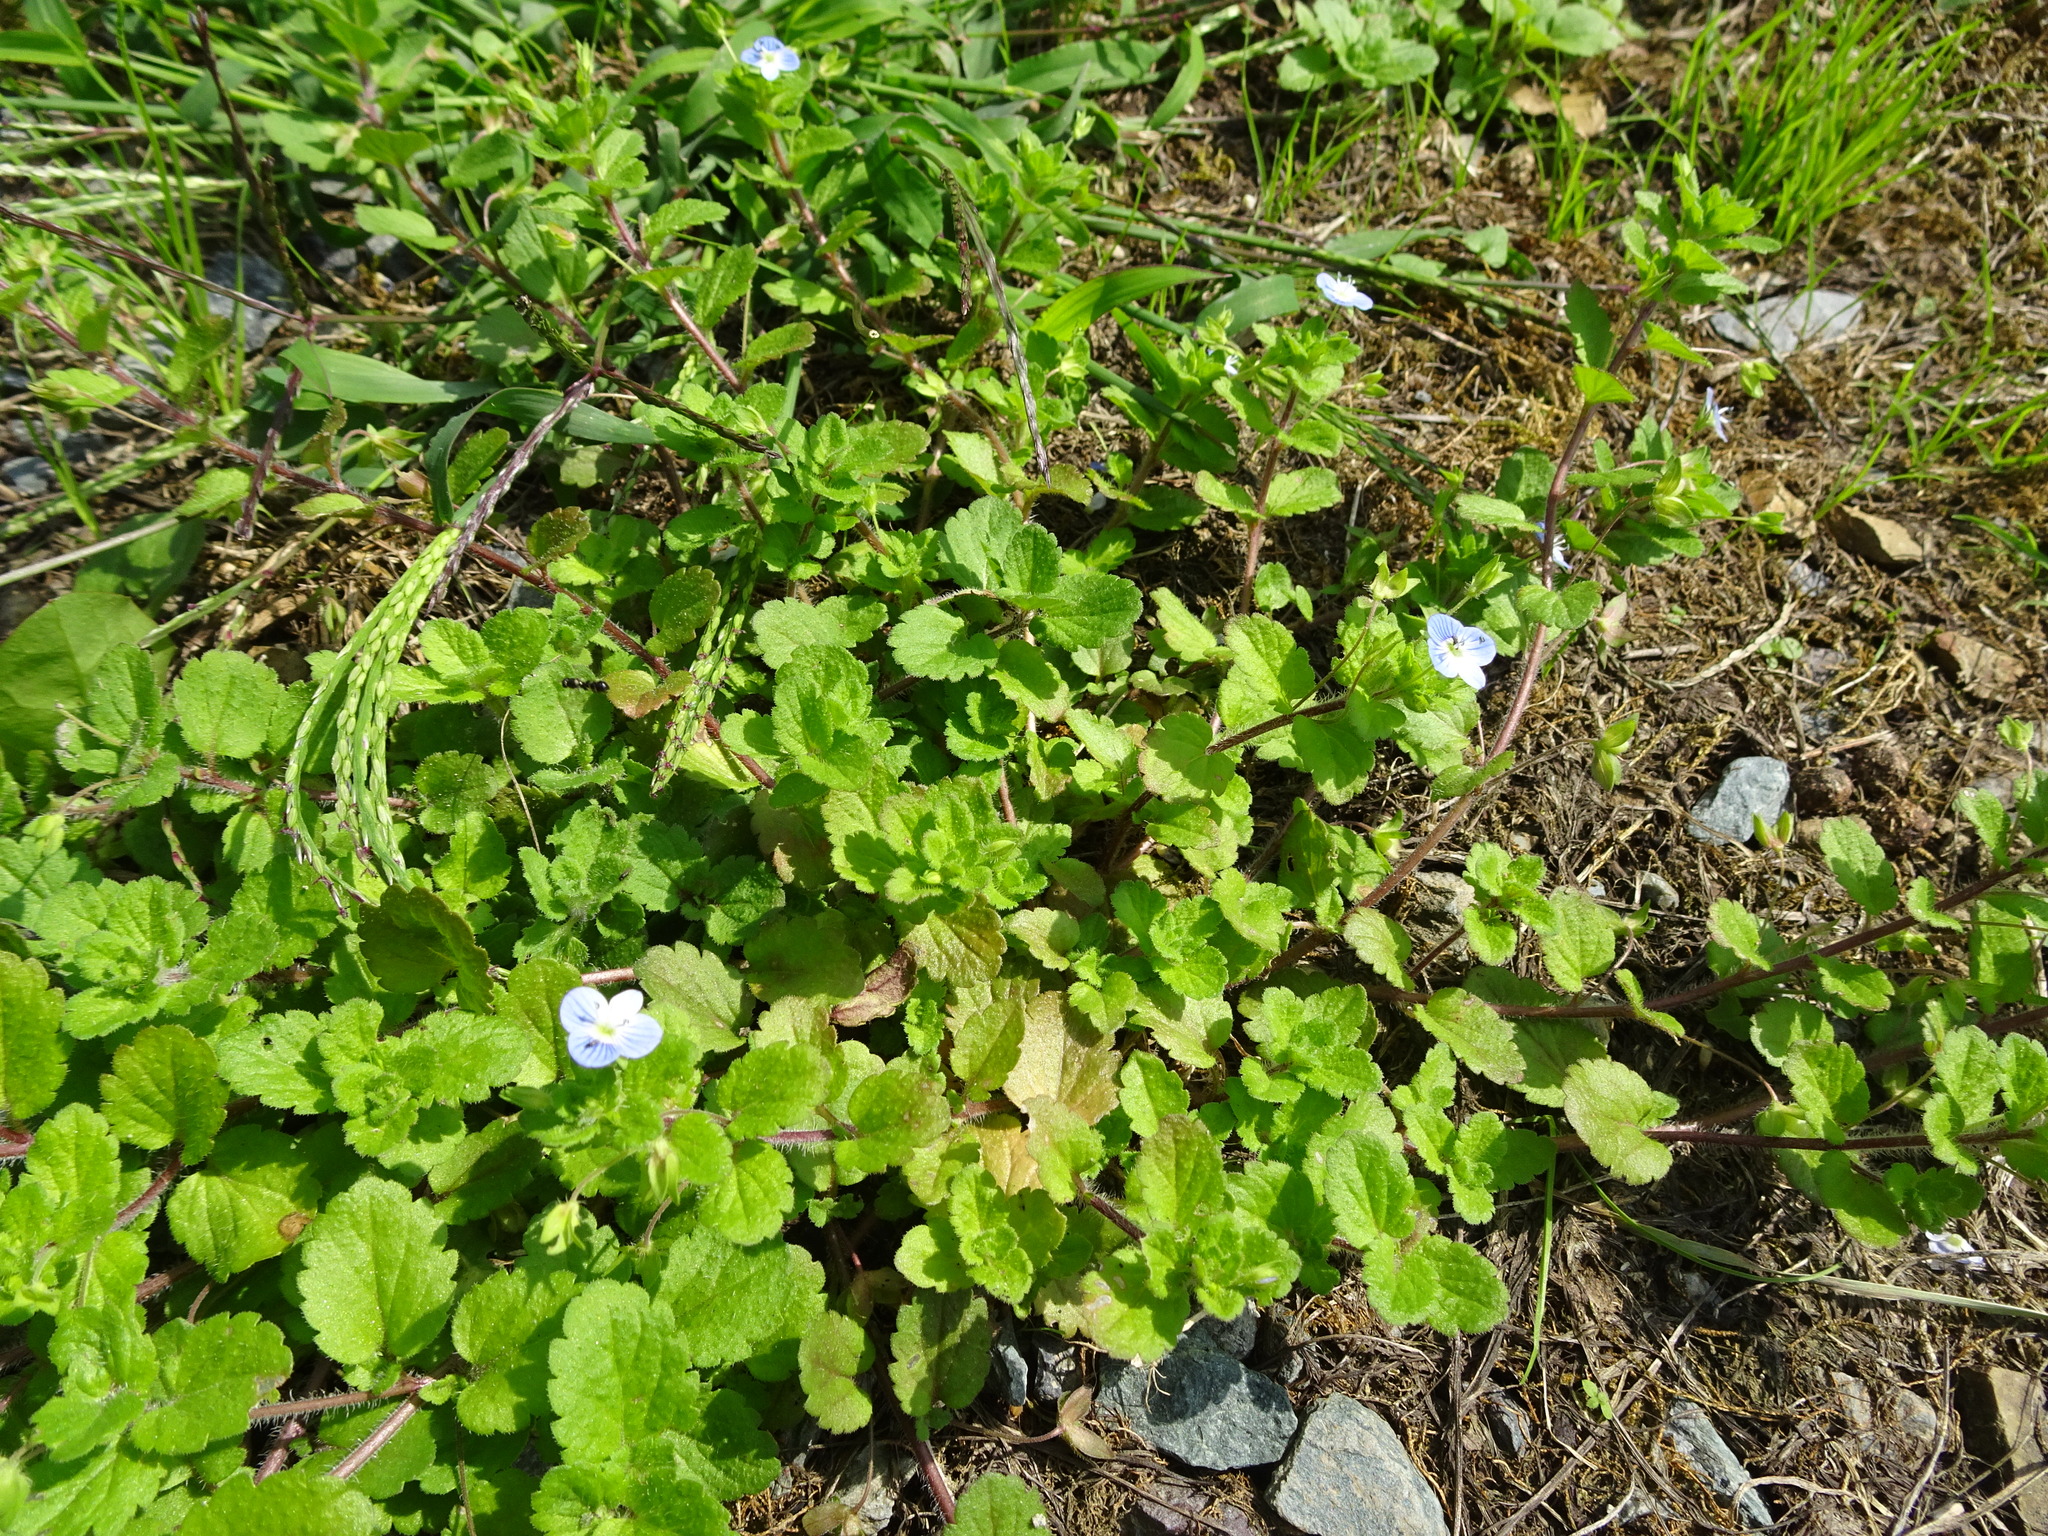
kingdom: Plantae
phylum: Tracheophyta
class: Magnoliopsida
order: Lamiales
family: Plantaginaceae
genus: Veronica
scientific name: Veronica persica
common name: Common field-speedwell
